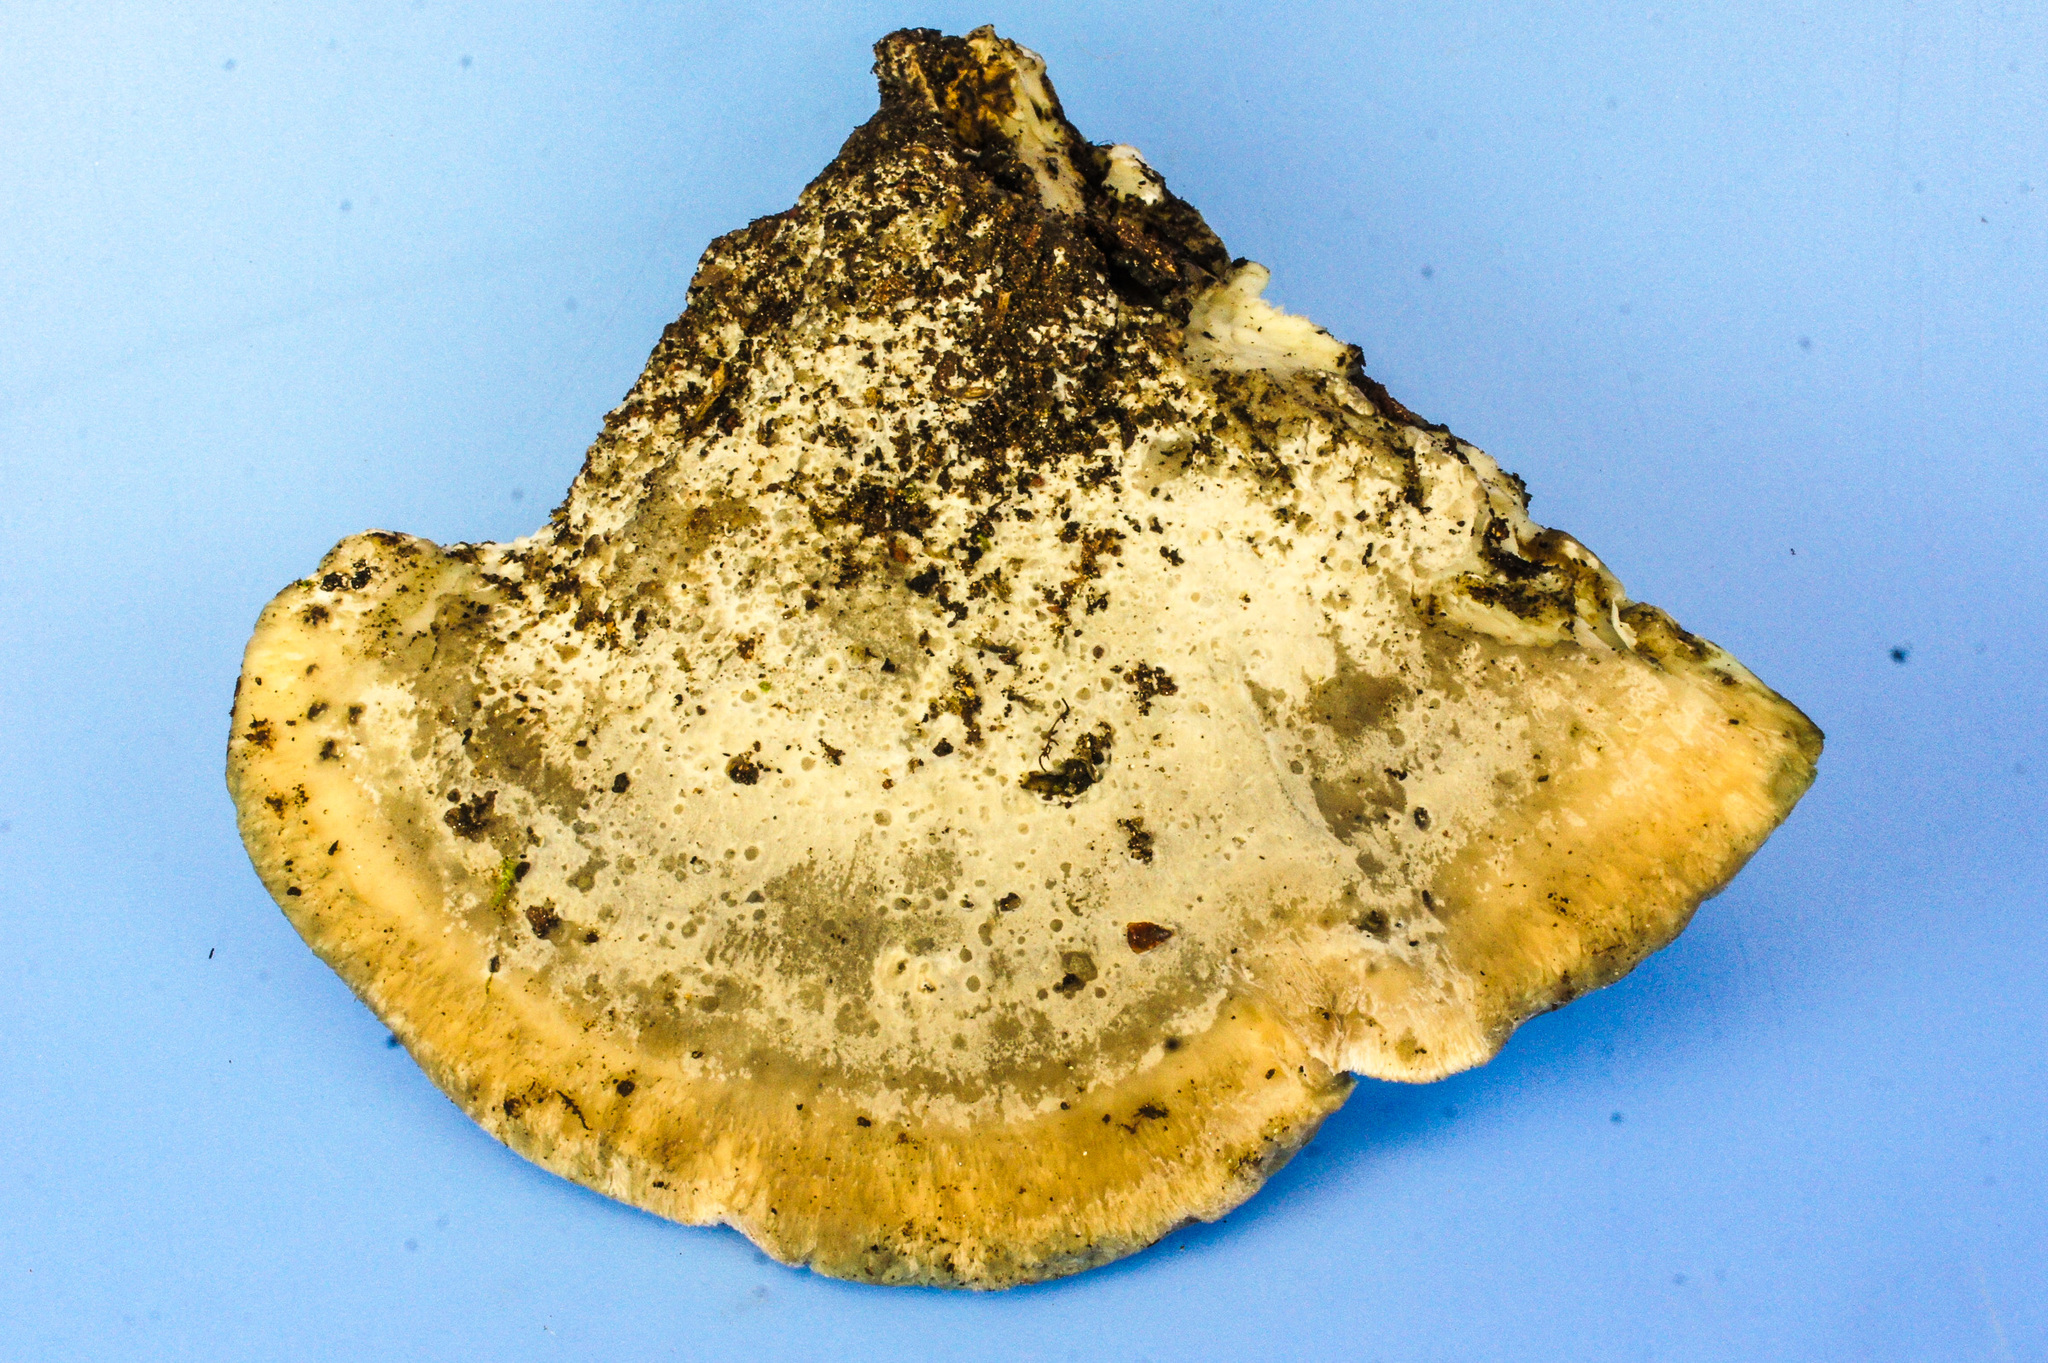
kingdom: Fungi
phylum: Basidiomycota
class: Agaricomycetes
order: Polyporales
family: Fomitopsidaceae
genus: Niveoporofomes
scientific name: Niveoporofomes spraguei
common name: Green cheese polypore
